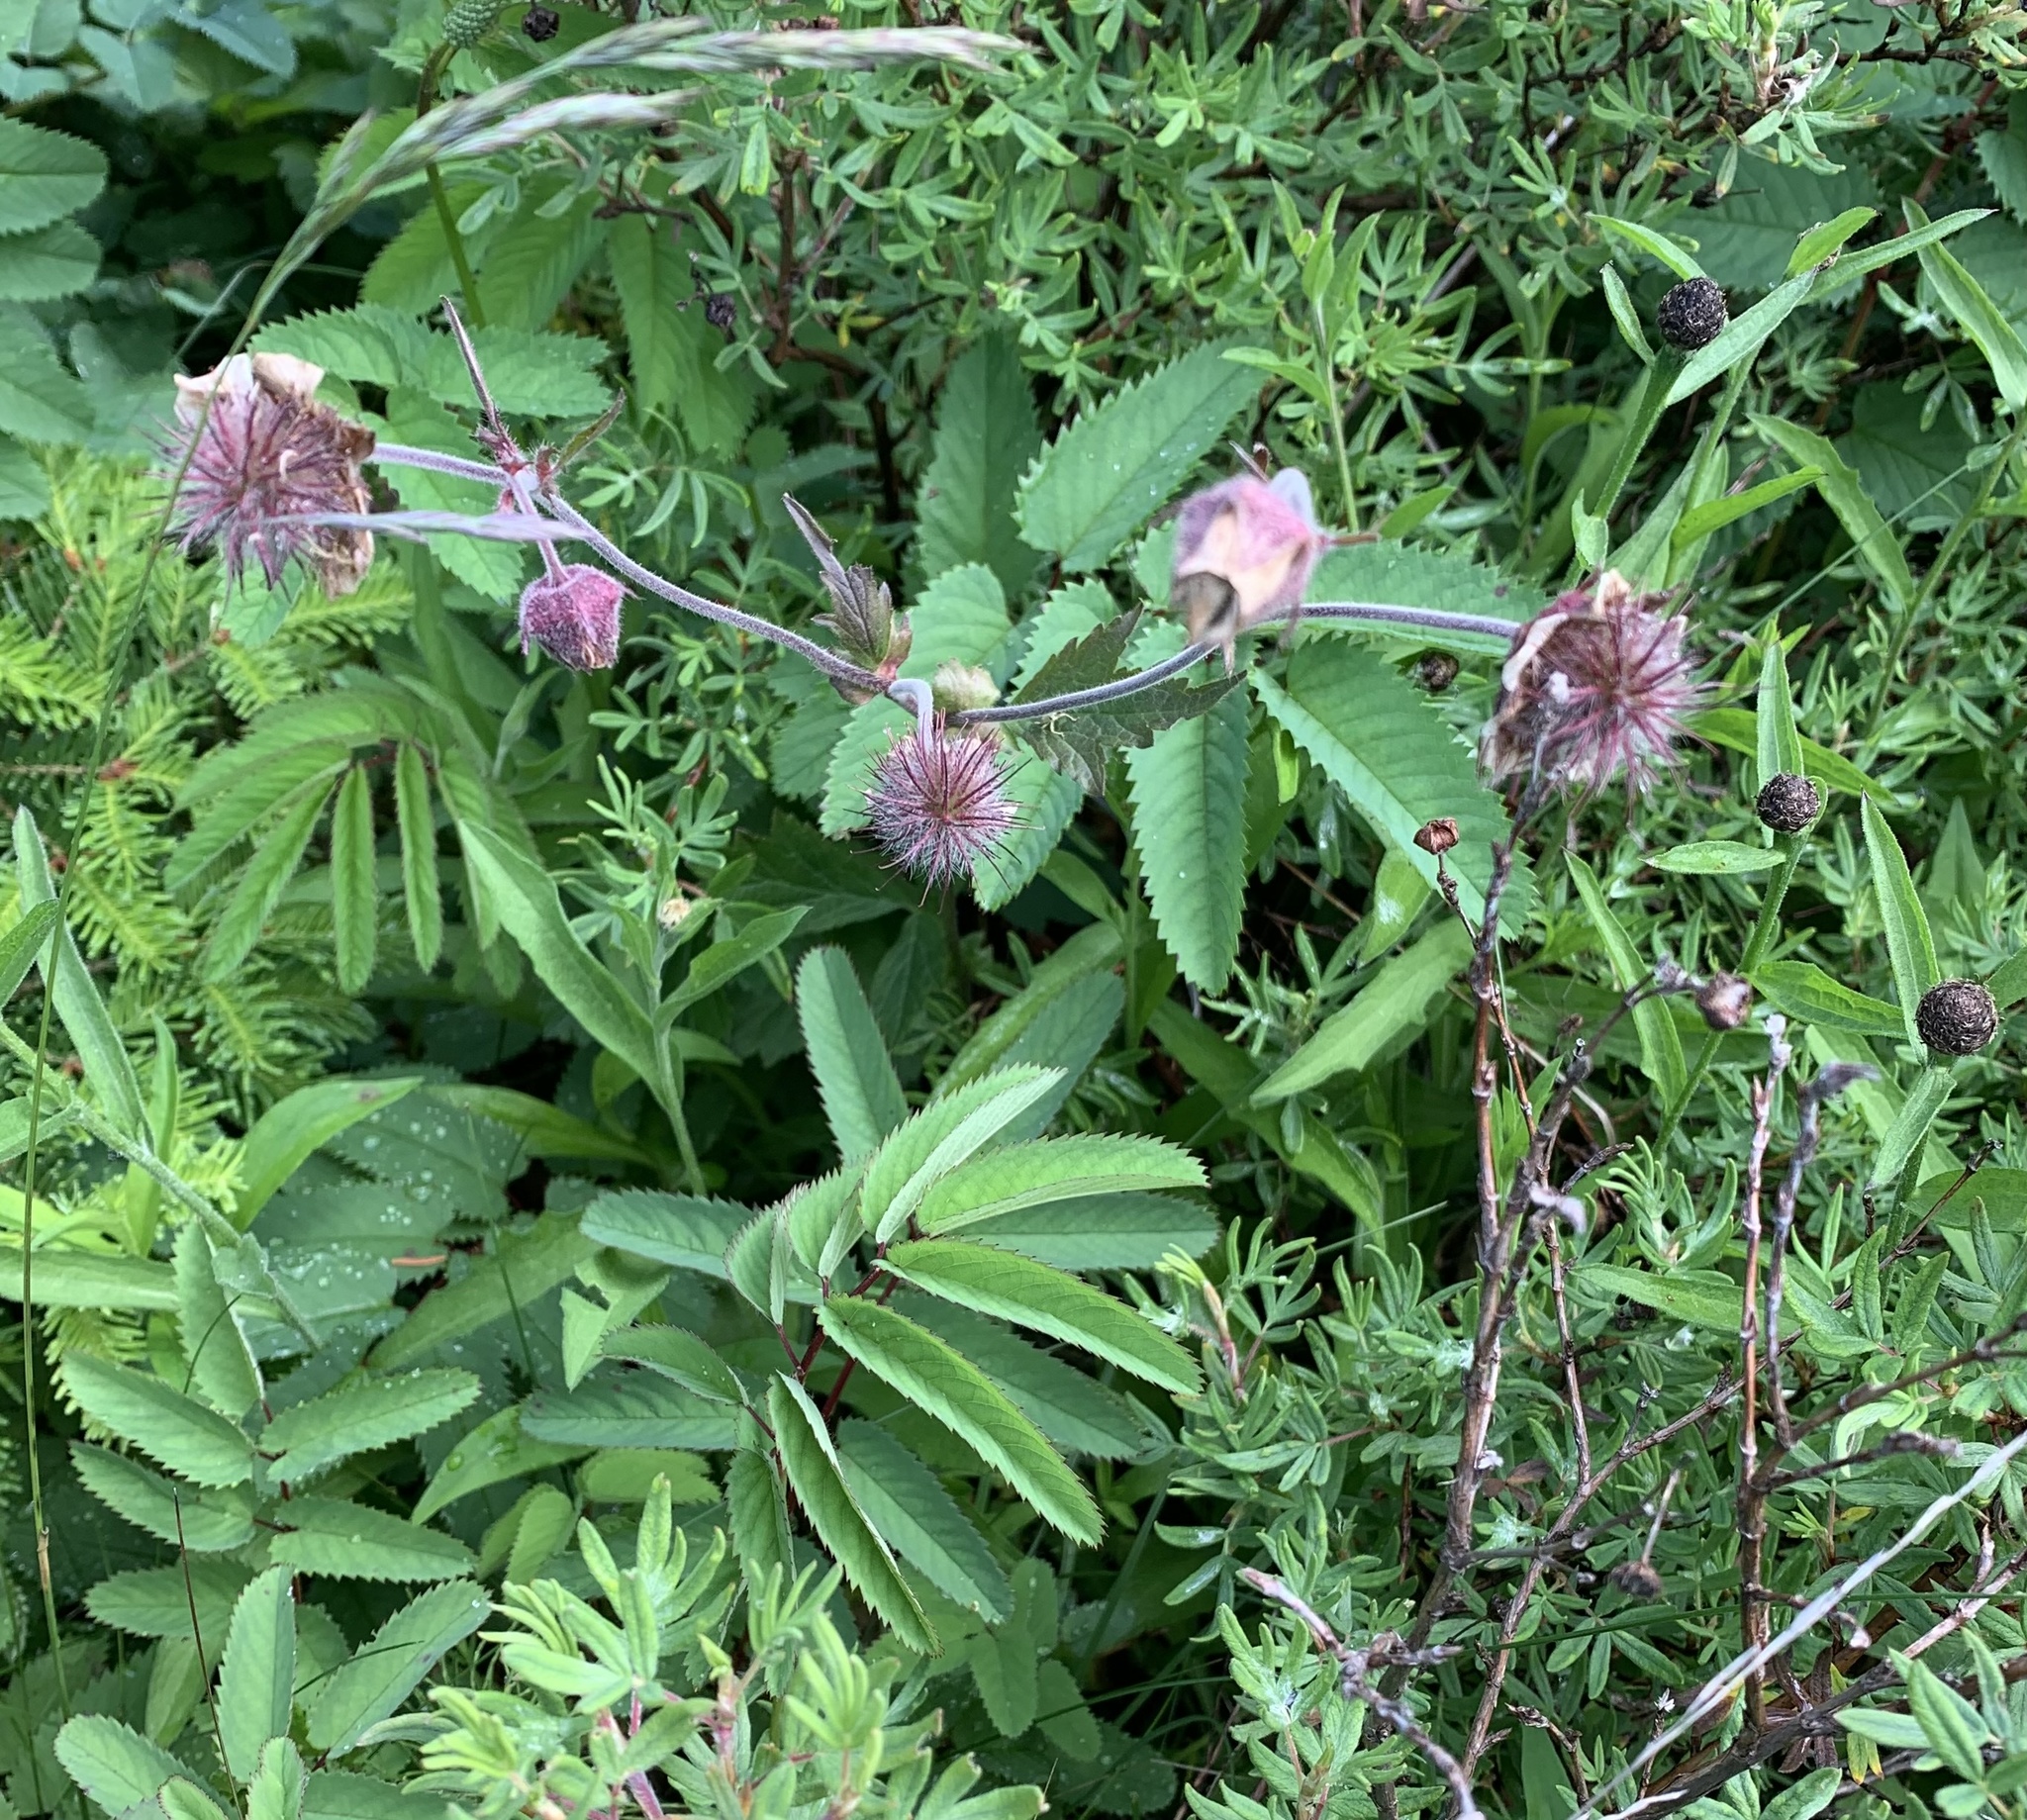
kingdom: Plantae
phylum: Tracheophyta
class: Magnoliopsida
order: Rosales
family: Rosaceae
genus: Geum
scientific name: Geum rivale
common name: Water avens
